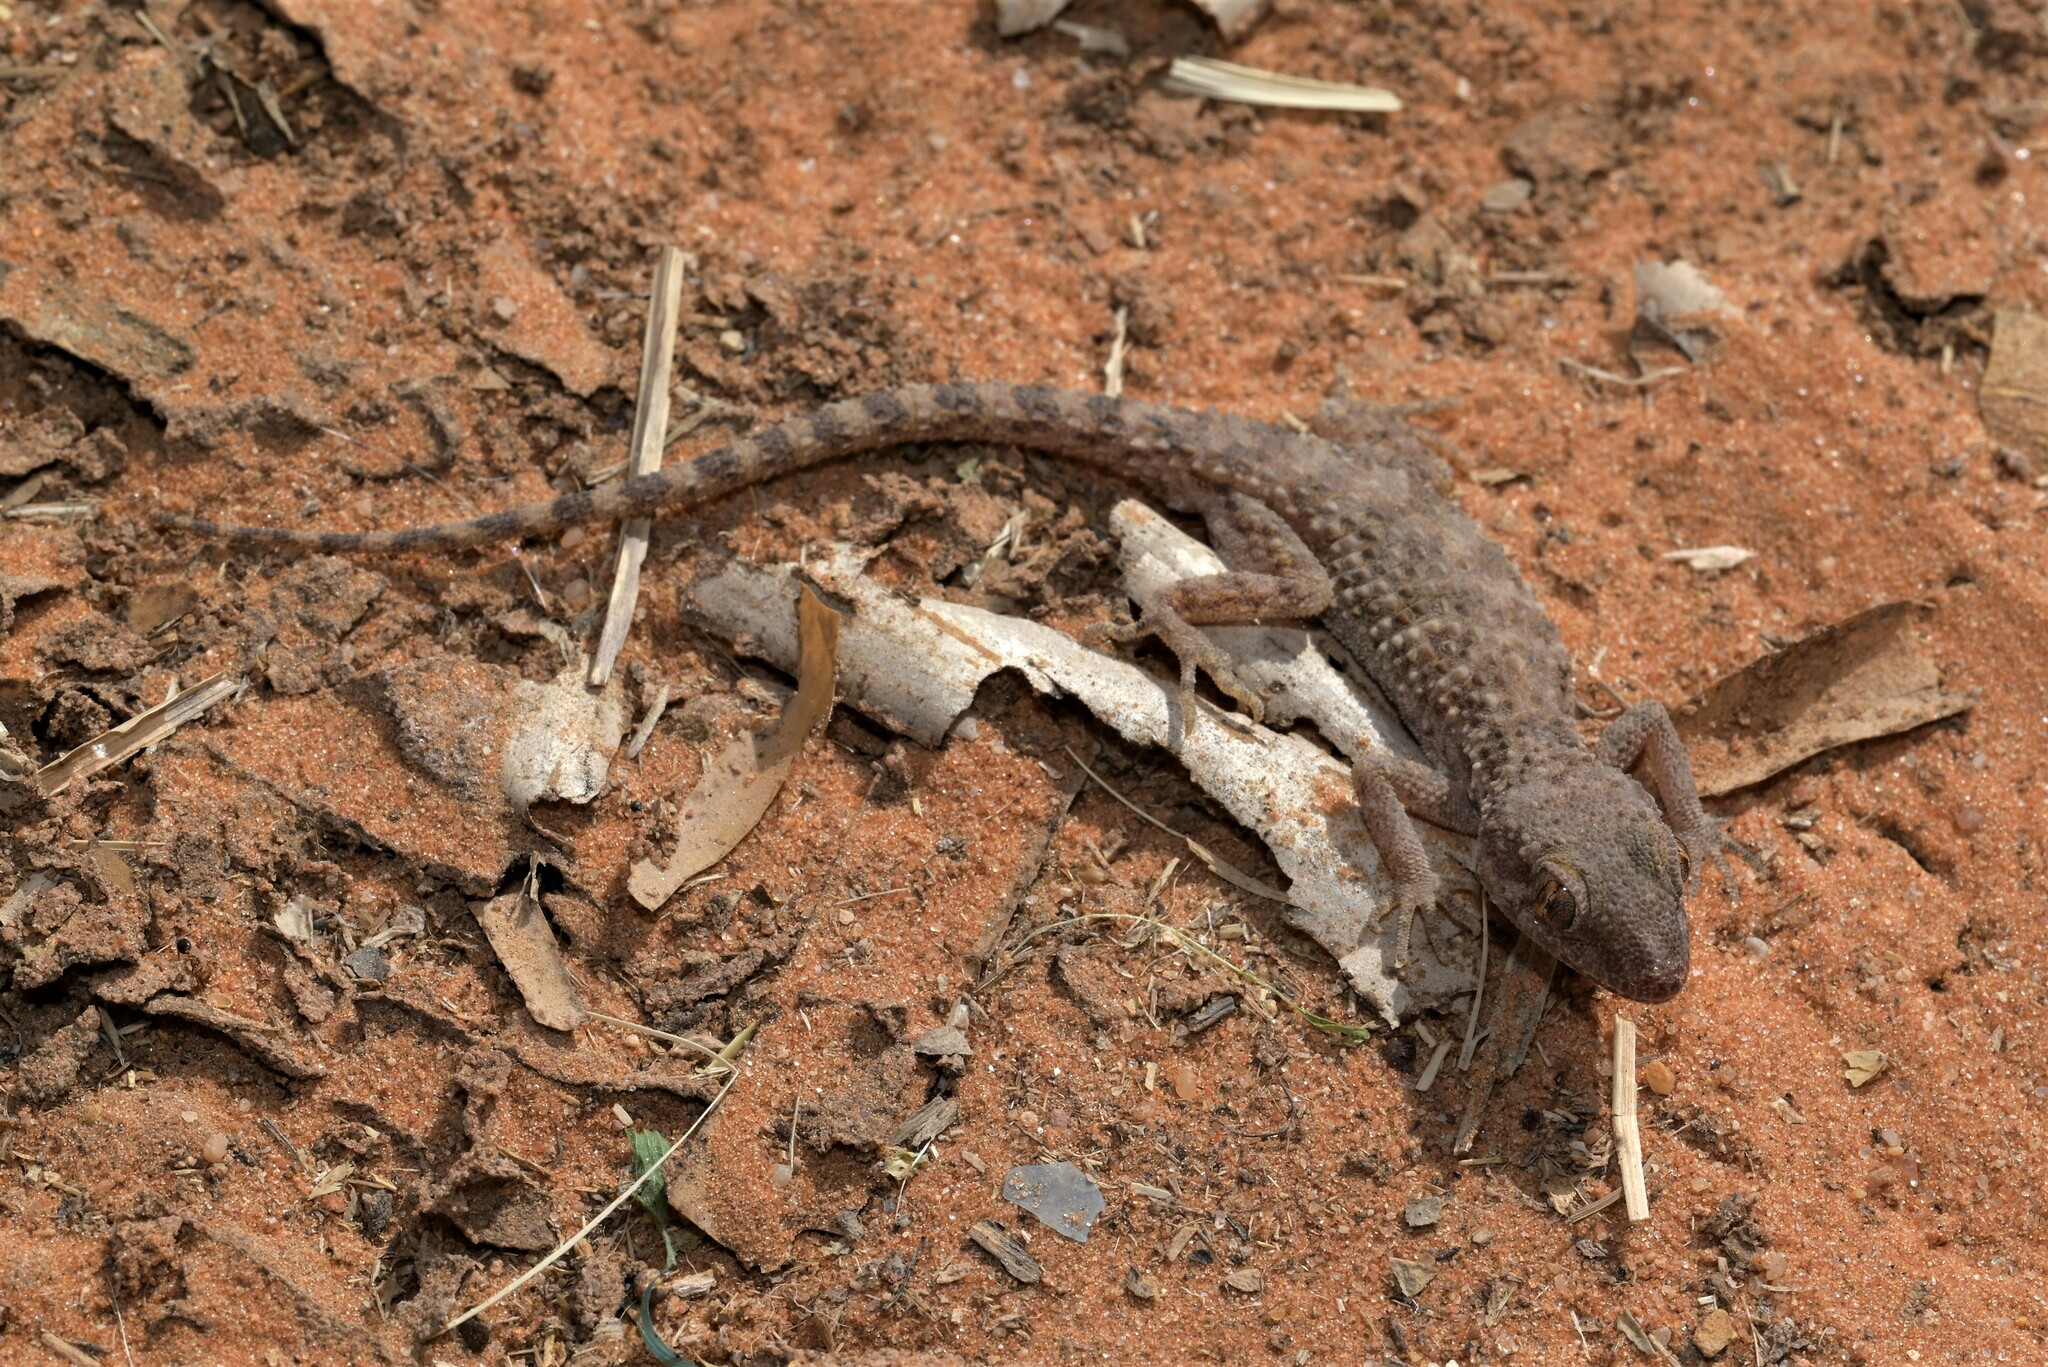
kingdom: Animalia
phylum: Chordata
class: Squamata
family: Gekkonidae
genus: Bunopus
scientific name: Bunopus tuberculatus
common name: Southern tuberculated gecko
